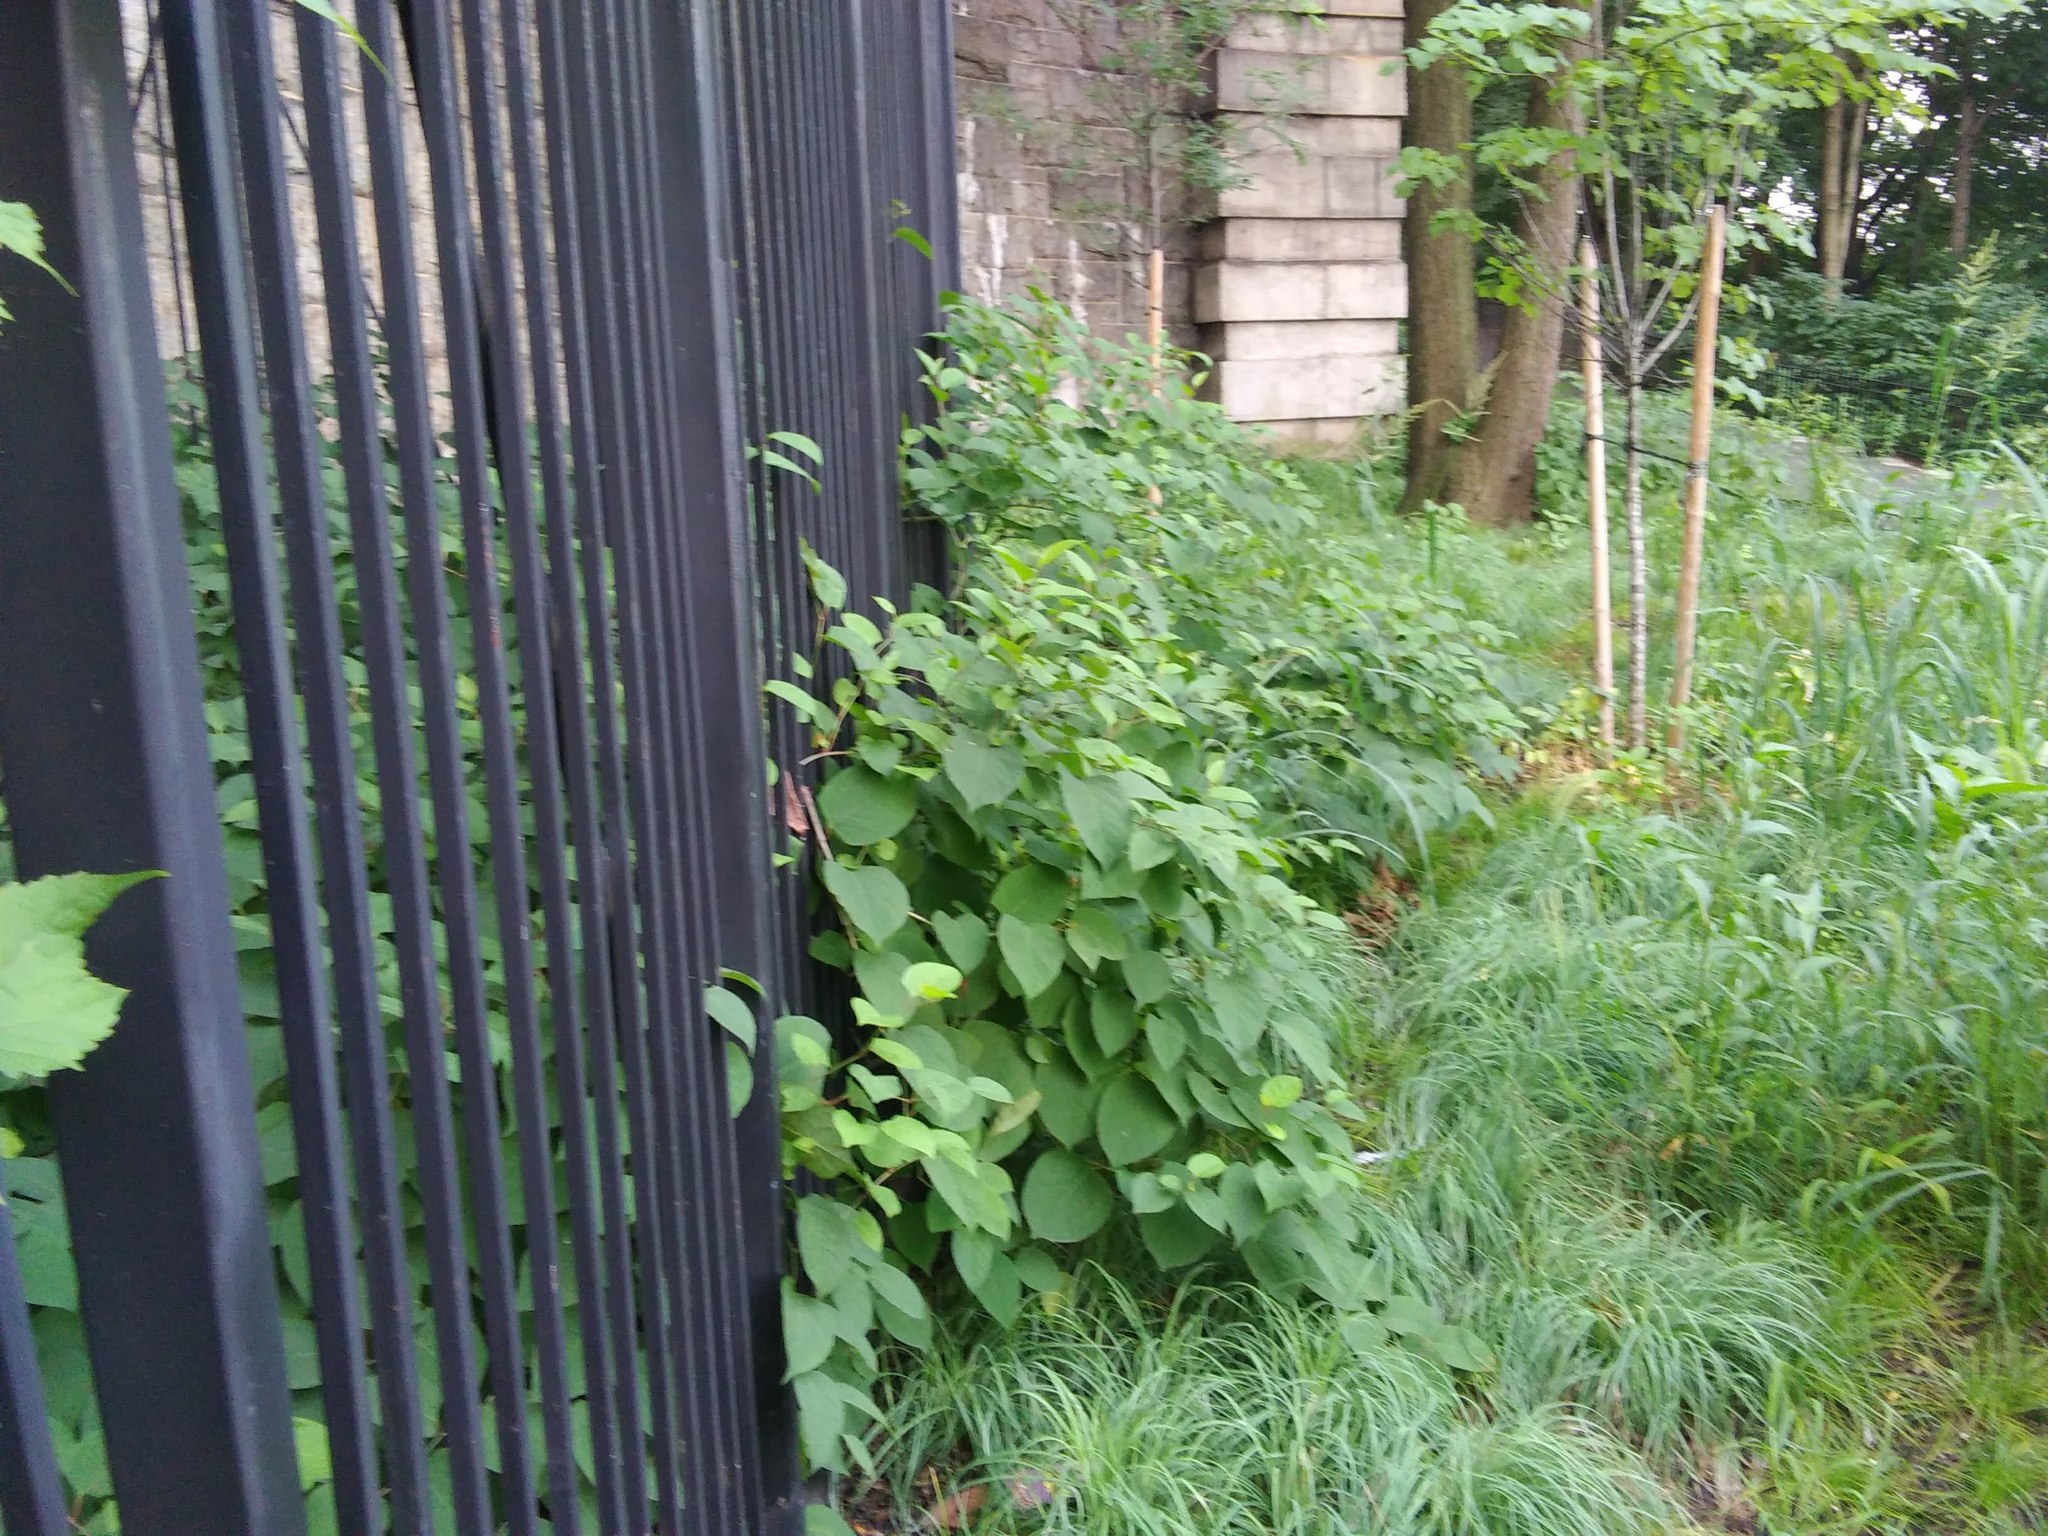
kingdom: Plantae
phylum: Tracheophyta
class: Magnoliopsida
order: Caryophyllales
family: Polygonaceae
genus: Reynoutria
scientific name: Reynoutria japonica
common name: Japanese knotweed
